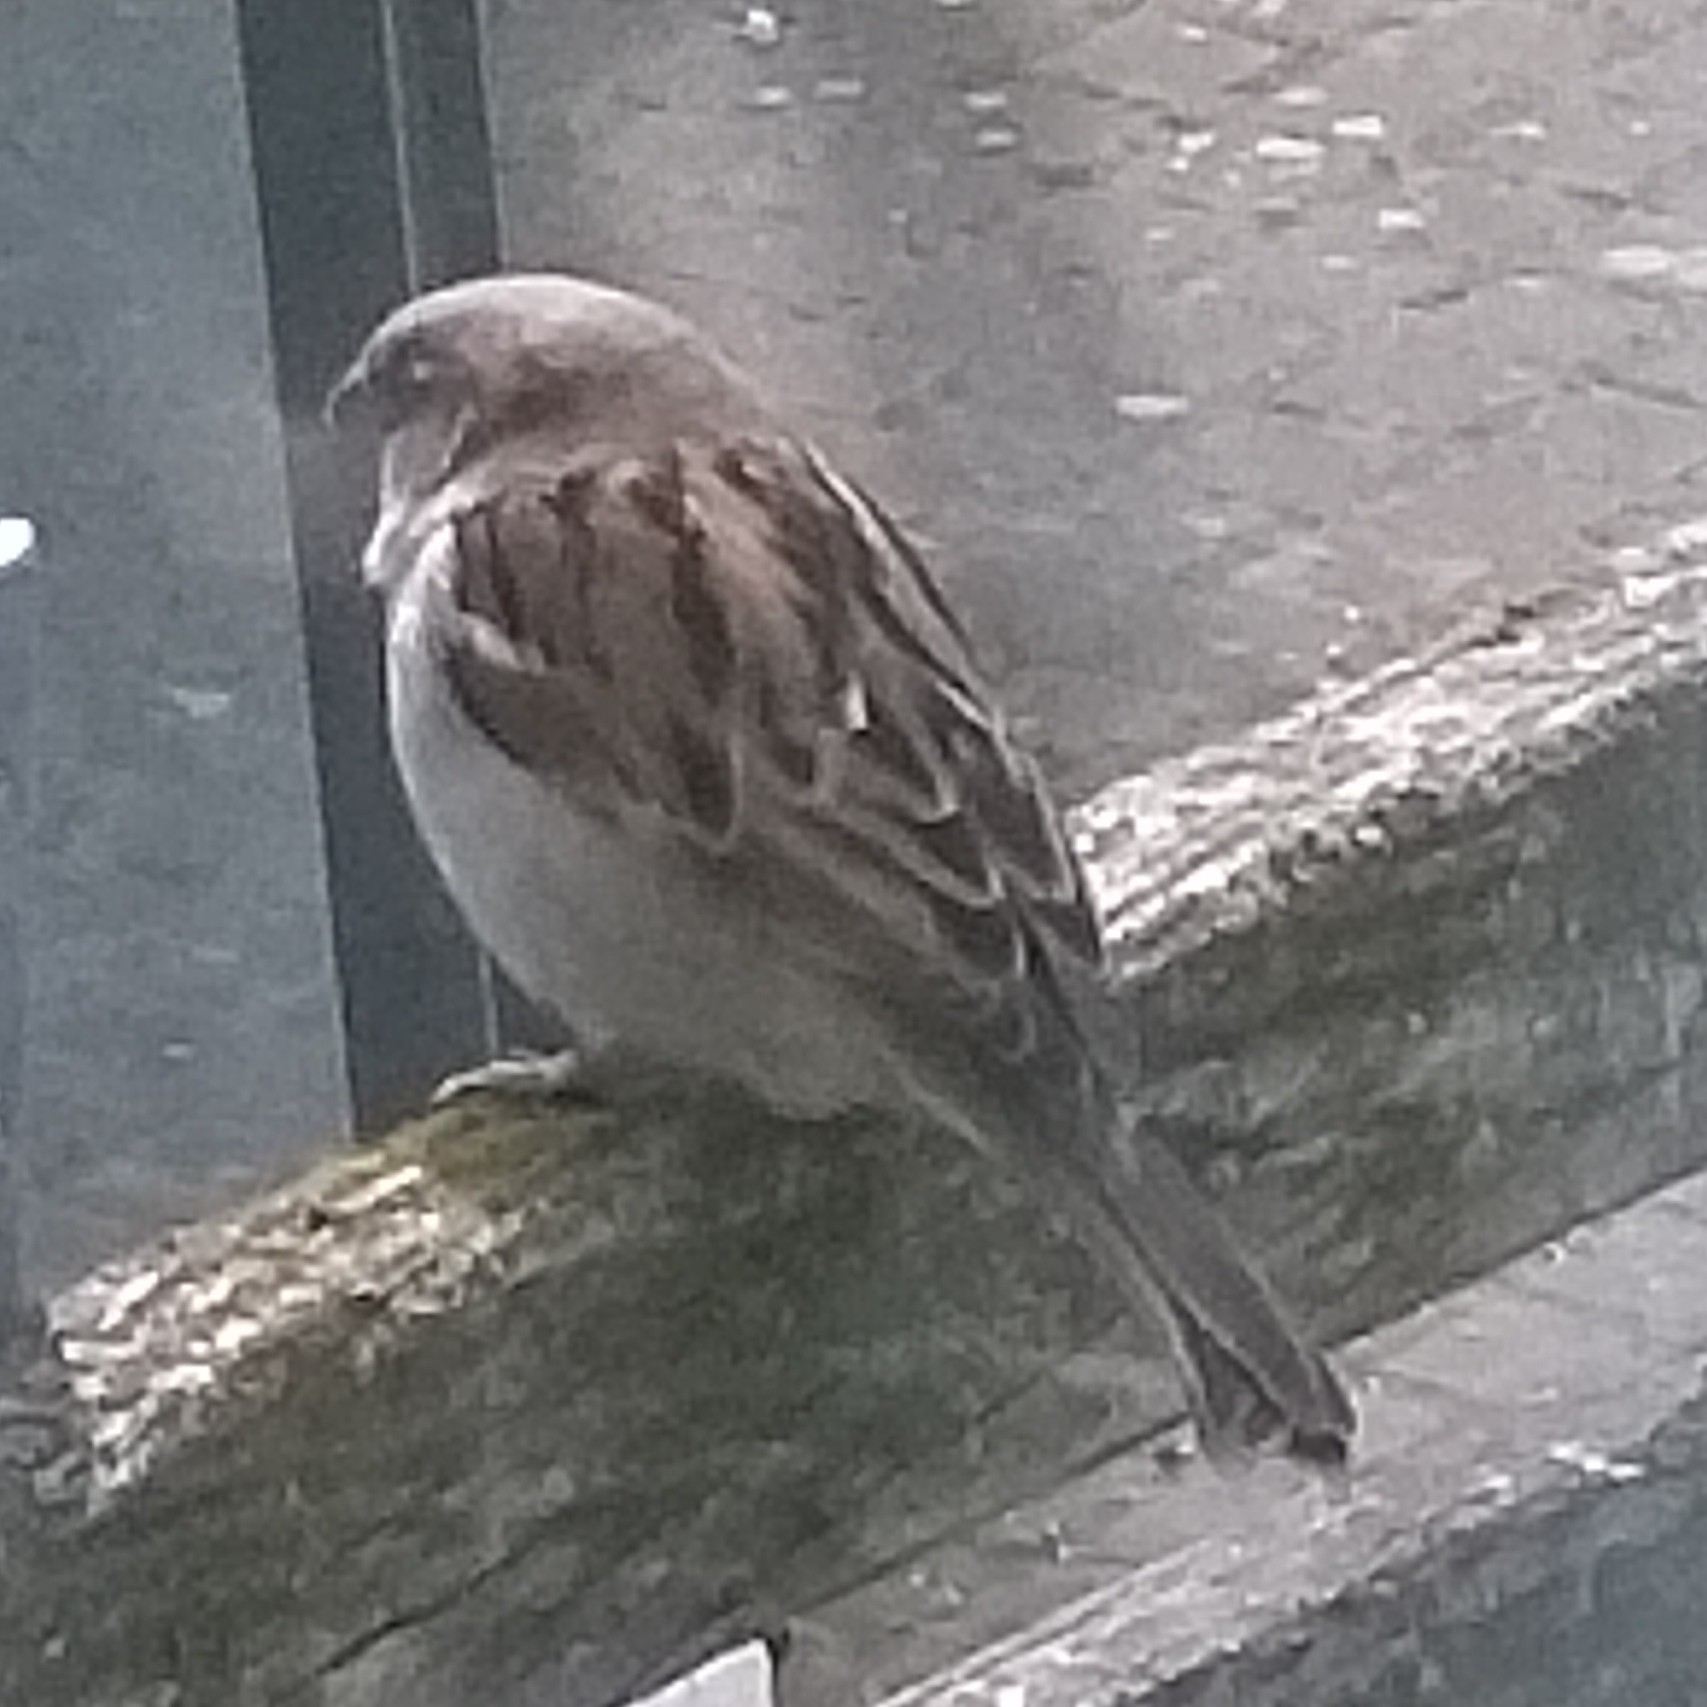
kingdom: Animalia
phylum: Chordata
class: Aves
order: Passeriformes
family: Passeridae
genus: Passer
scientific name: Passer domesticus
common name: House sparrow
